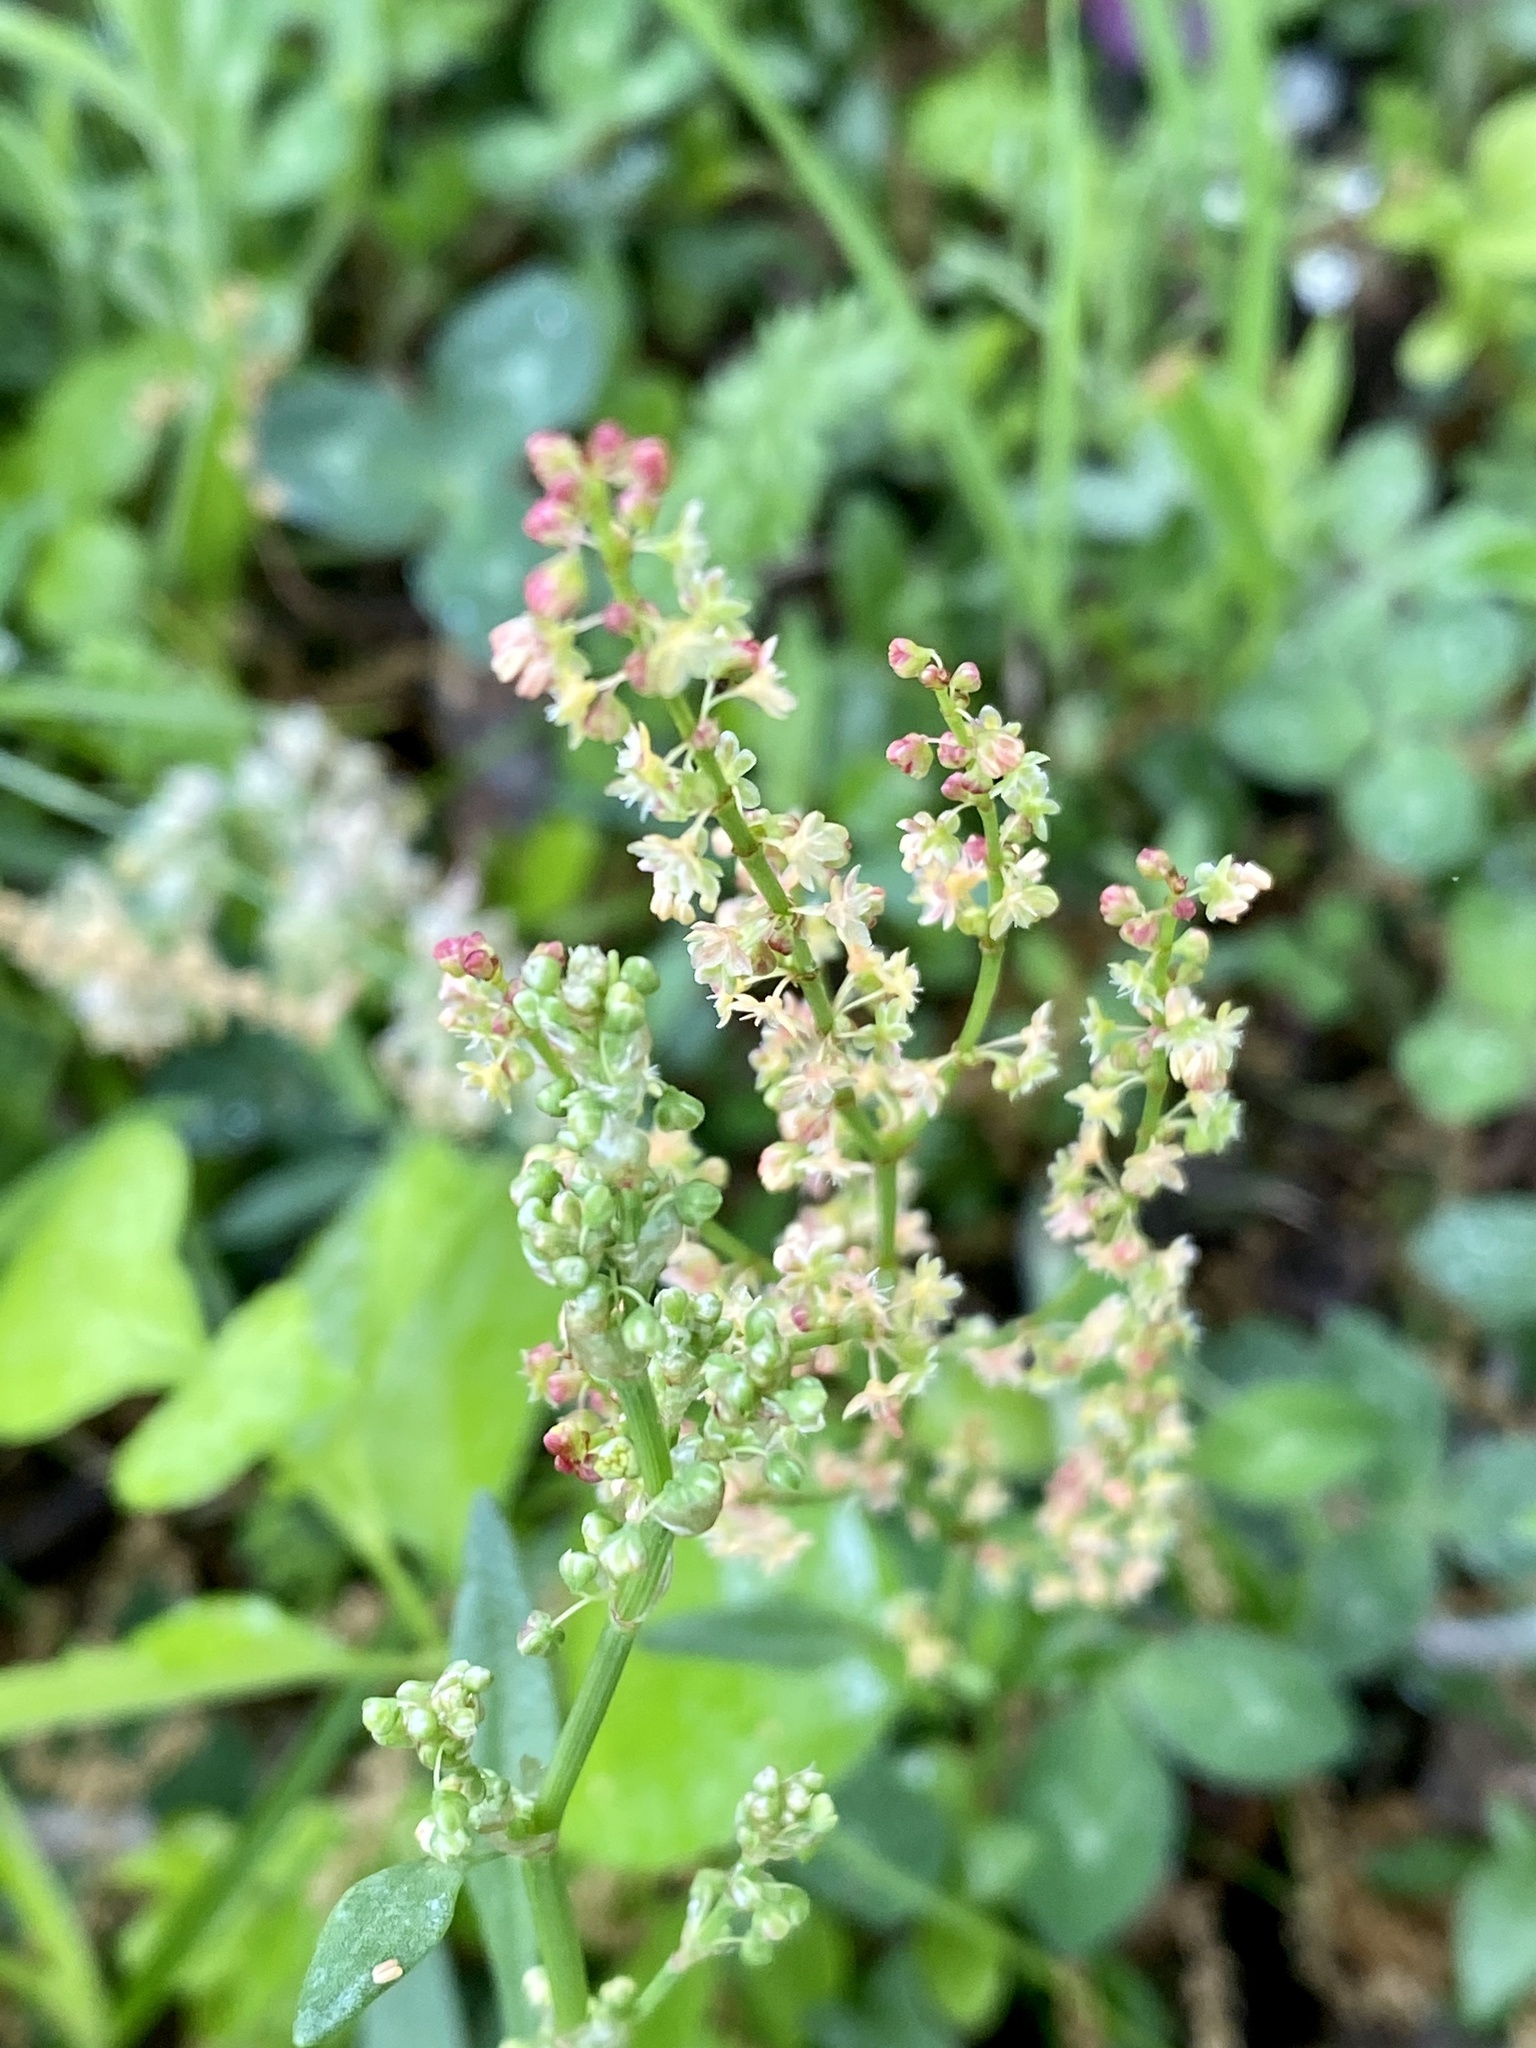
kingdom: Plantae
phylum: Tracheophyta
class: Magnoliopsida
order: Caryophyllales
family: Polygonaceae
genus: Rumex
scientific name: Rumex acetosella
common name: Common sheep sorrel
